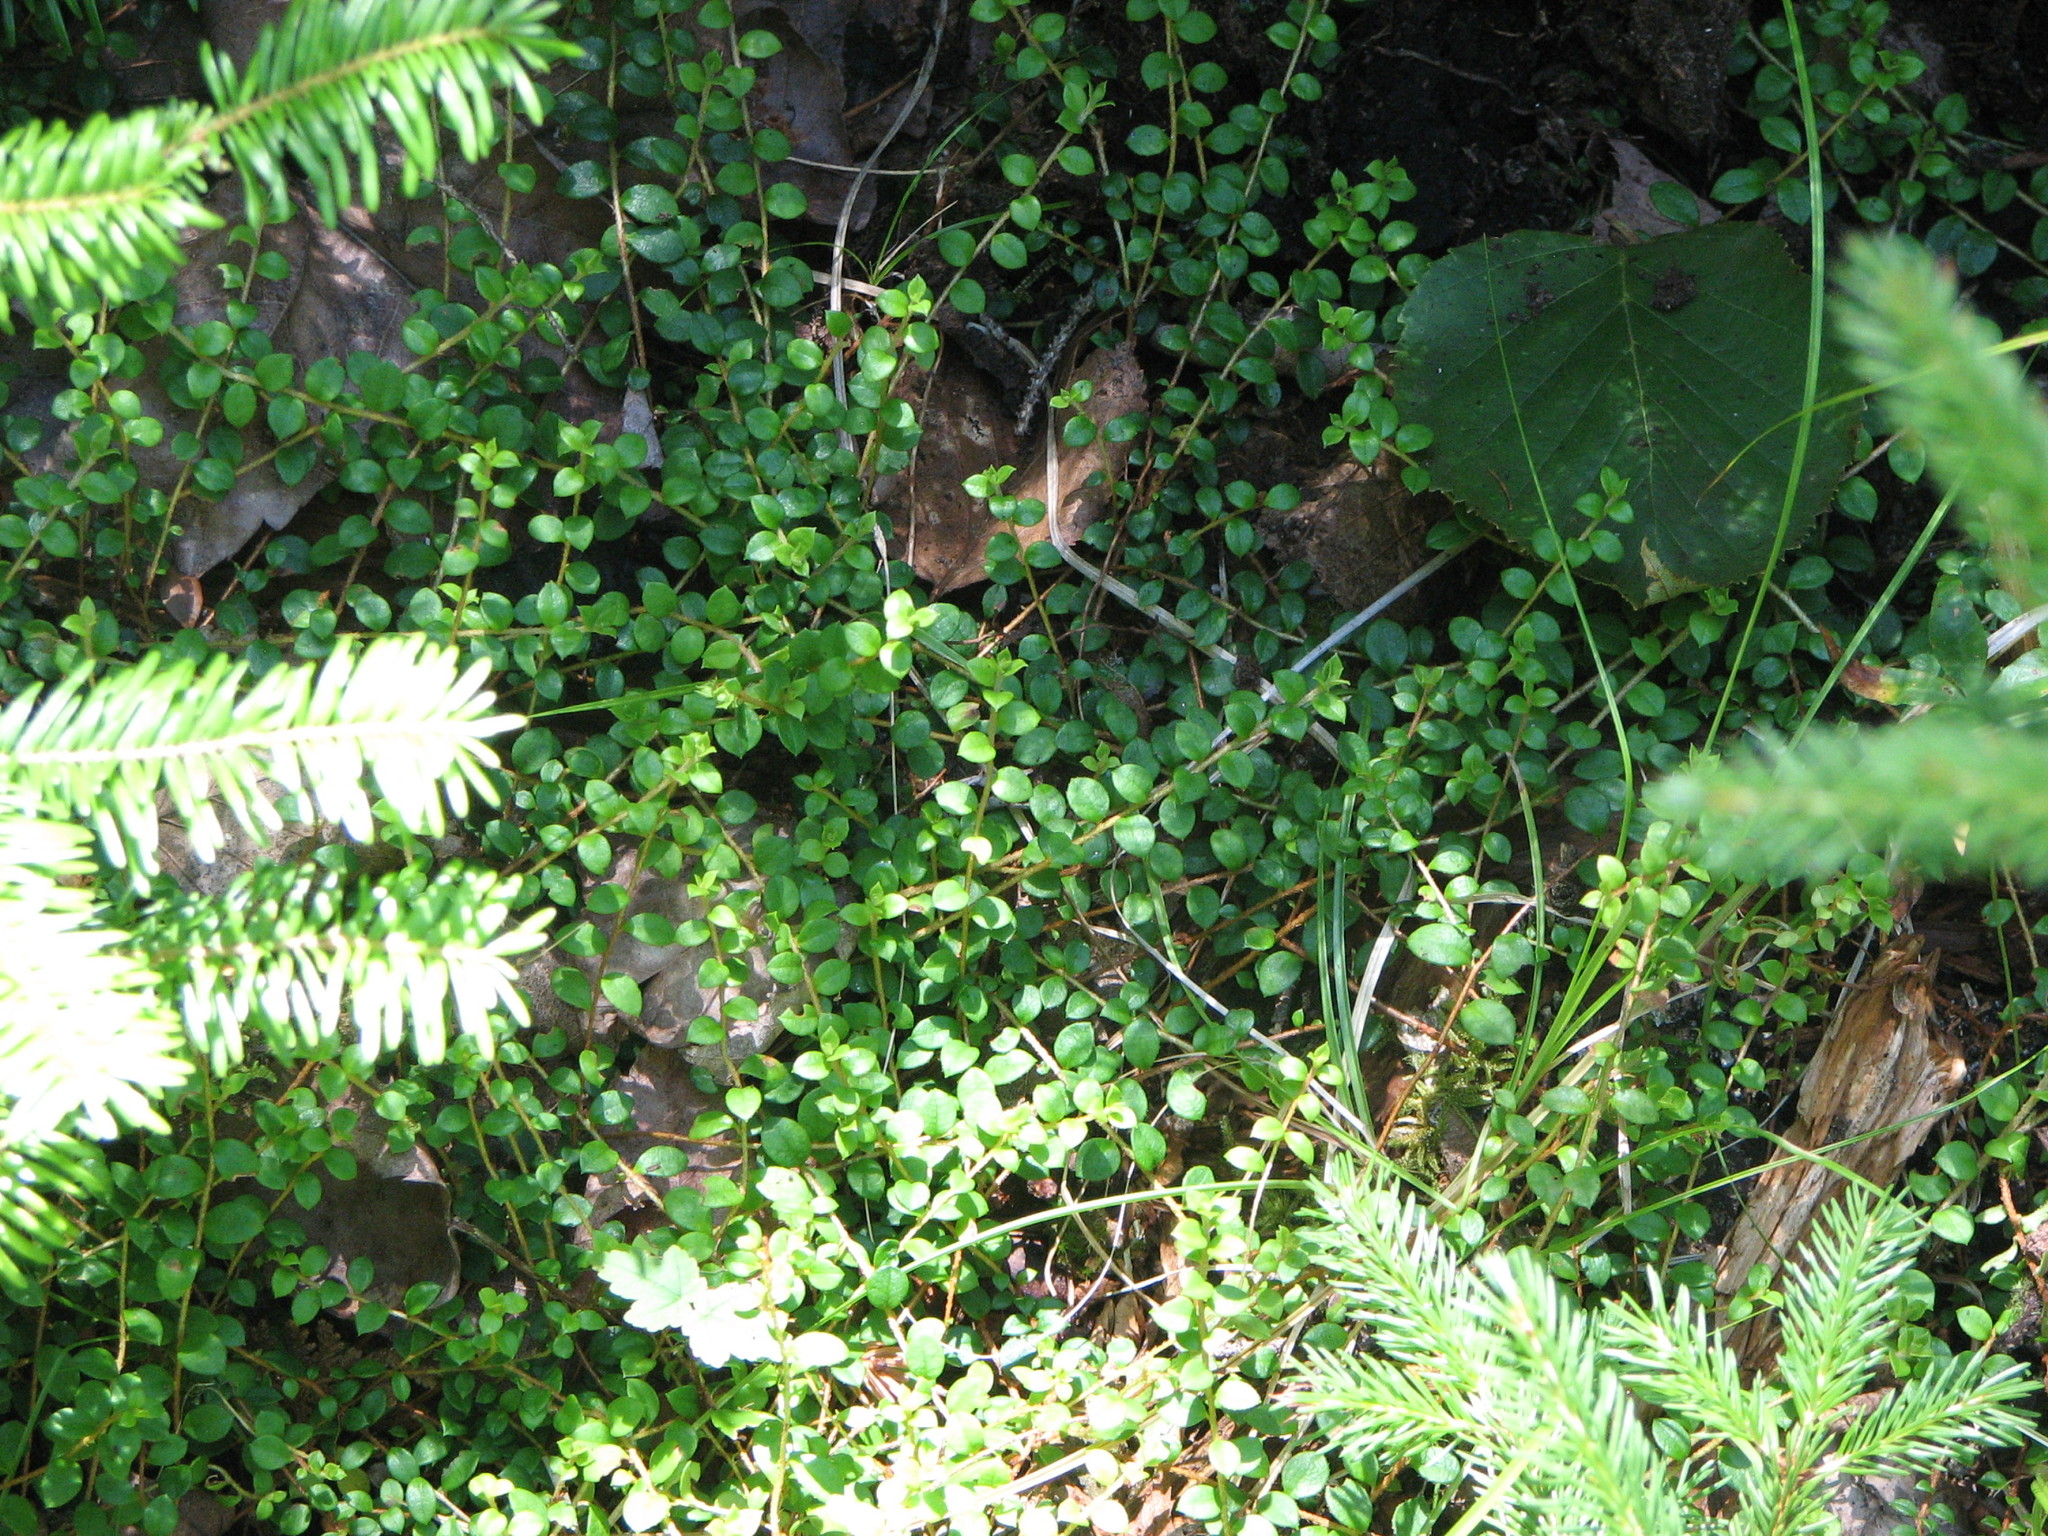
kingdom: Plantae
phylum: Tracheophyta
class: Magnoliopsida
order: Ericales
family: Ericaceae
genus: Gaultheria
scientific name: Gaultheria hispidula
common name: Cancer wintergreen
